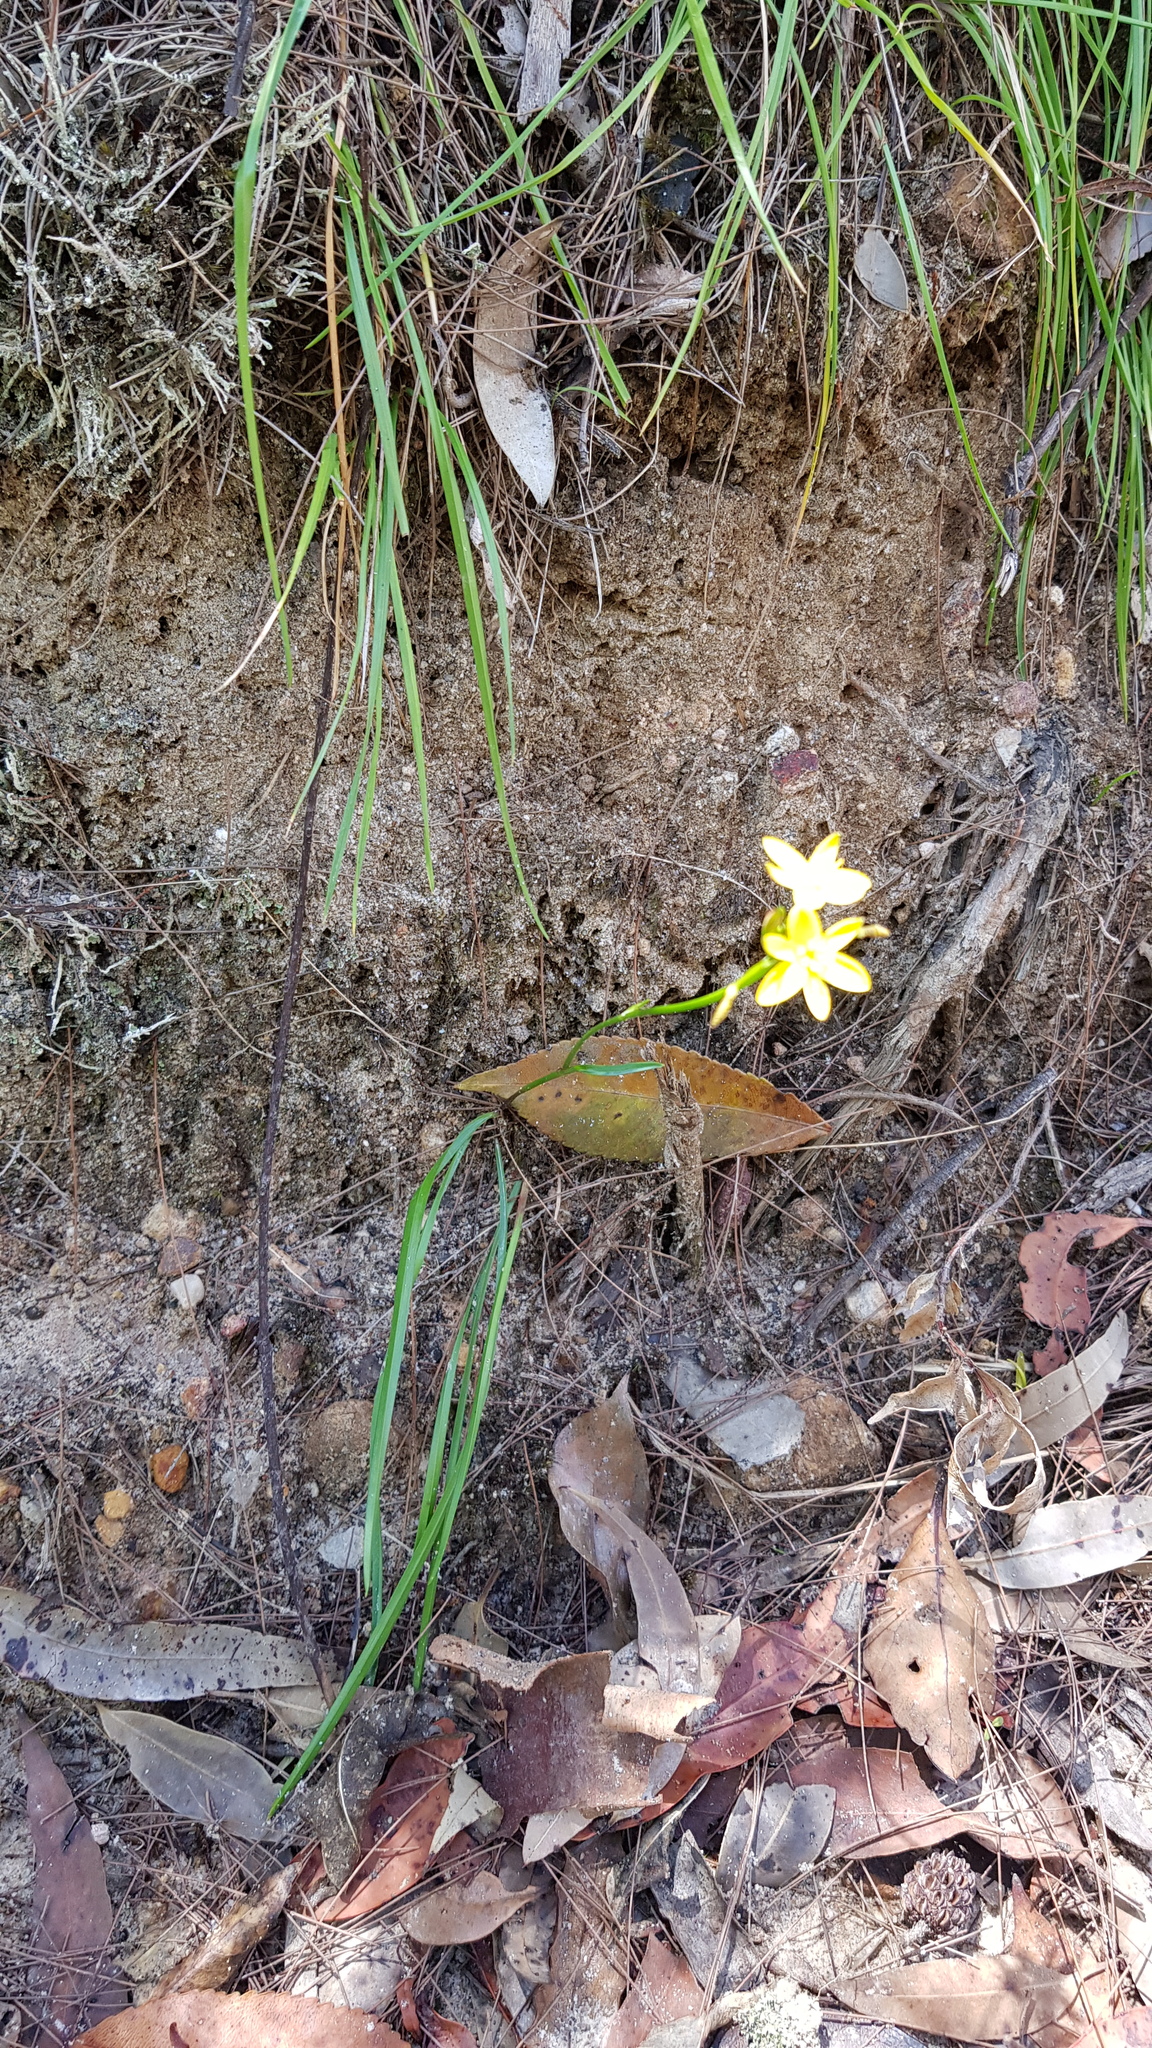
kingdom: Plantae
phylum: Tracheophyta
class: Liliopsida
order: Asparagales
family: Asphodelaceae
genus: Tricoryne
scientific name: Tricoryne simplex
